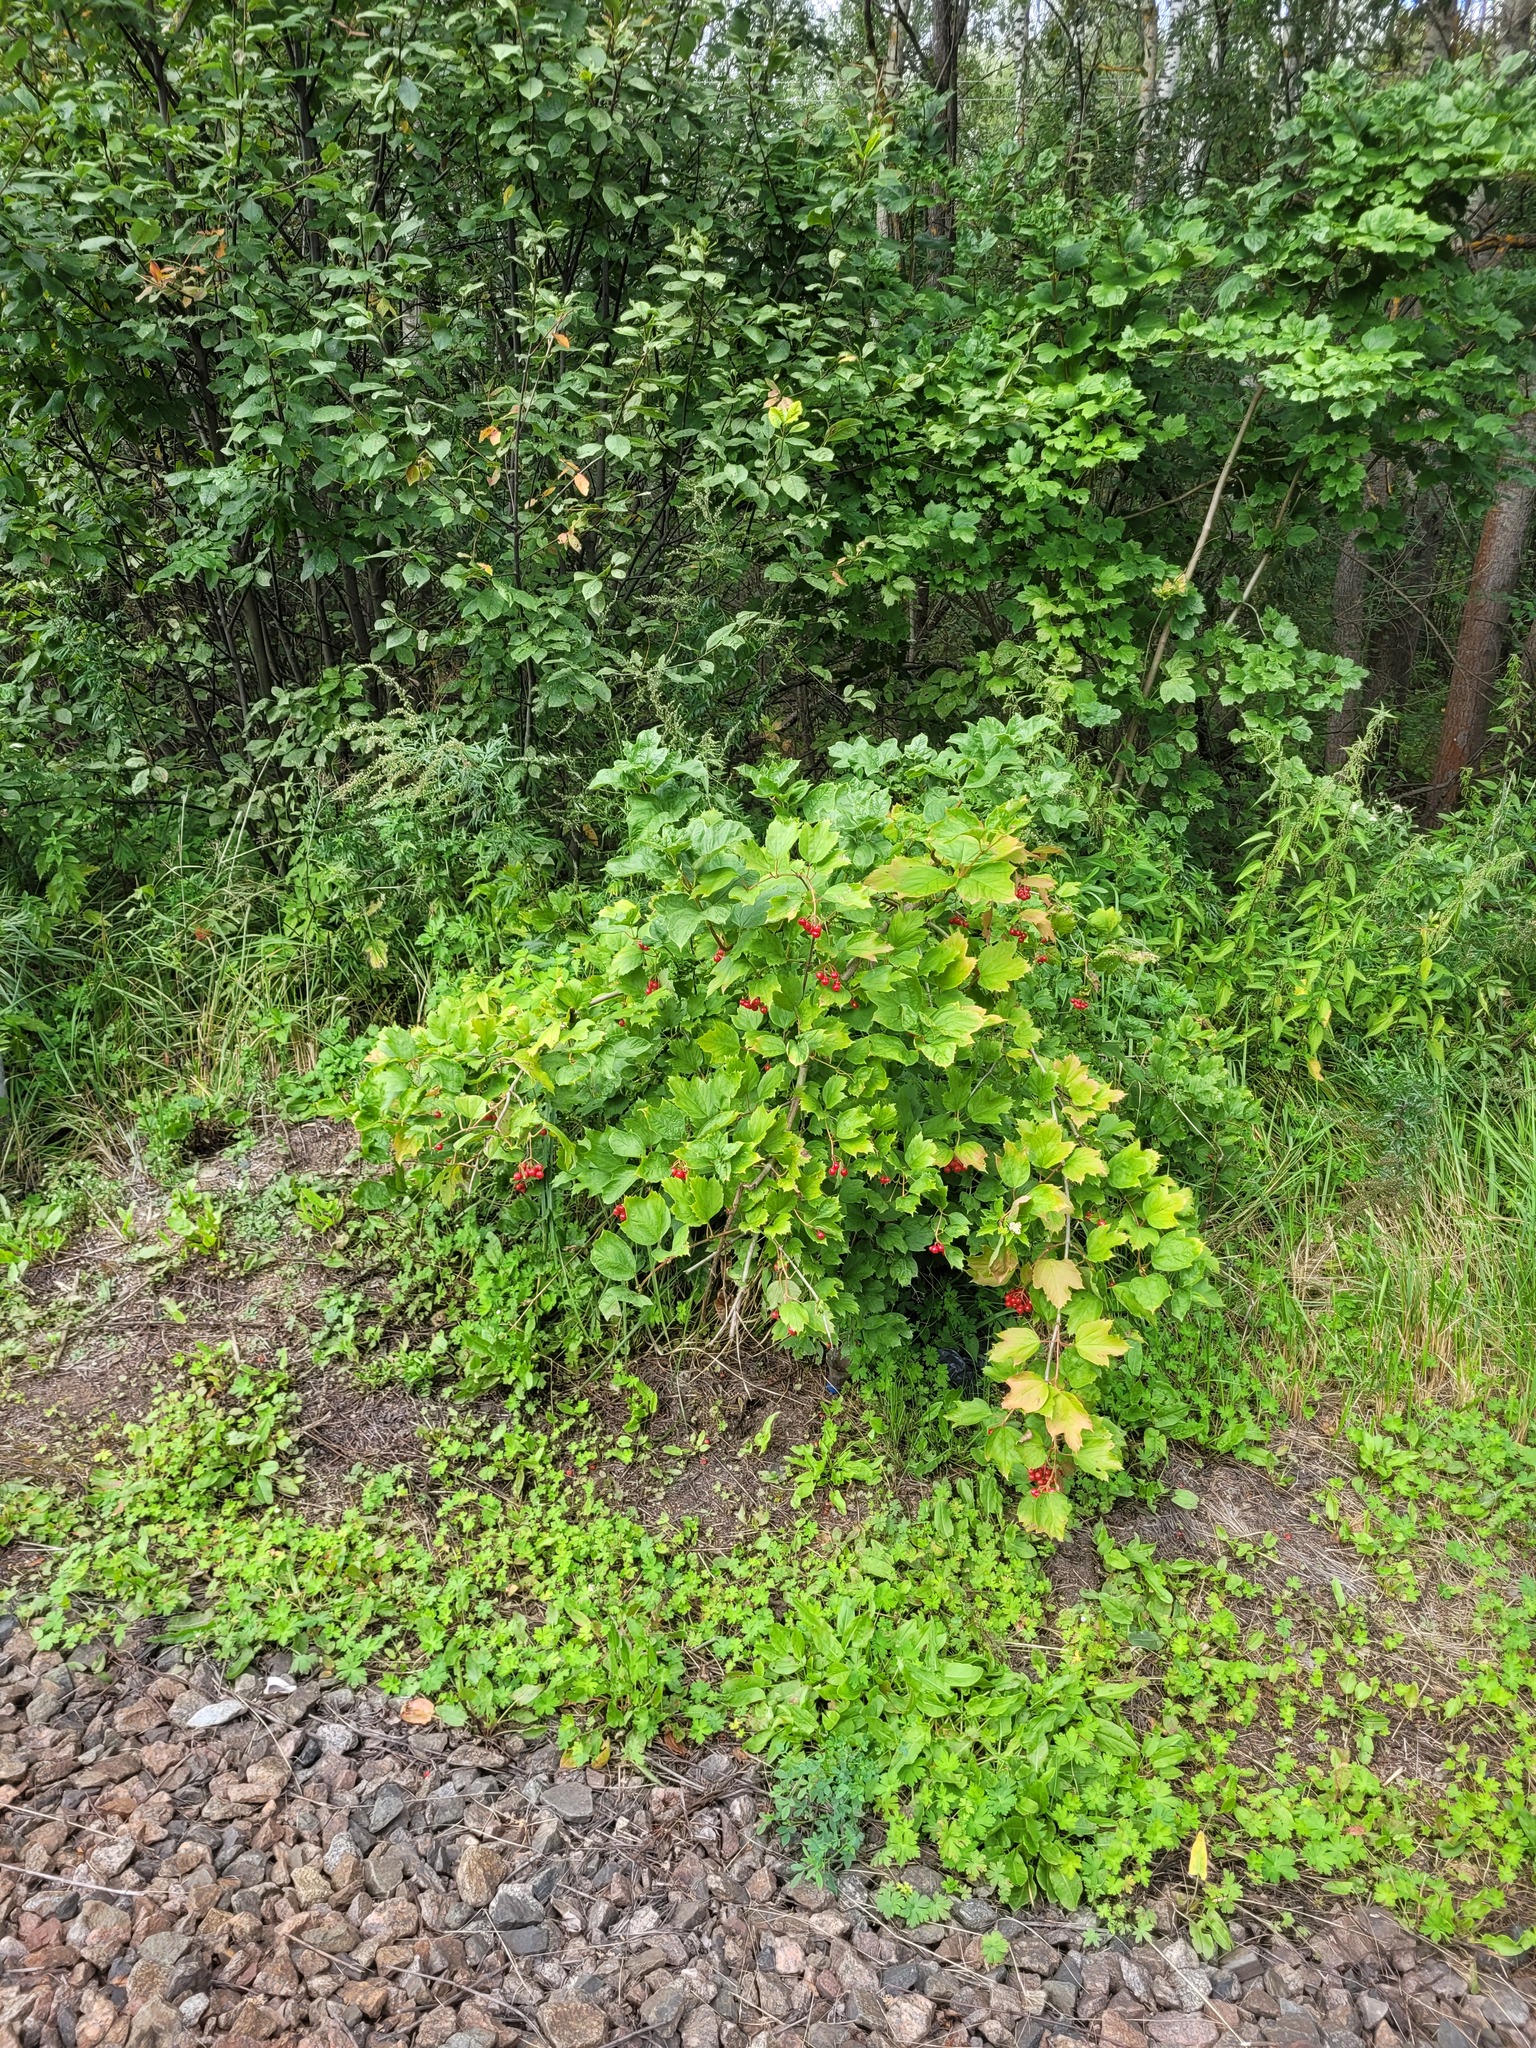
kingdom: Plantae
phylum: Tracheophyta
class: Magnoliopsida
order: Dipsacales
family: Viburnaceae
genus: Viburnum
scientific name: Viburnum opulus
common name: Guelder-rose
